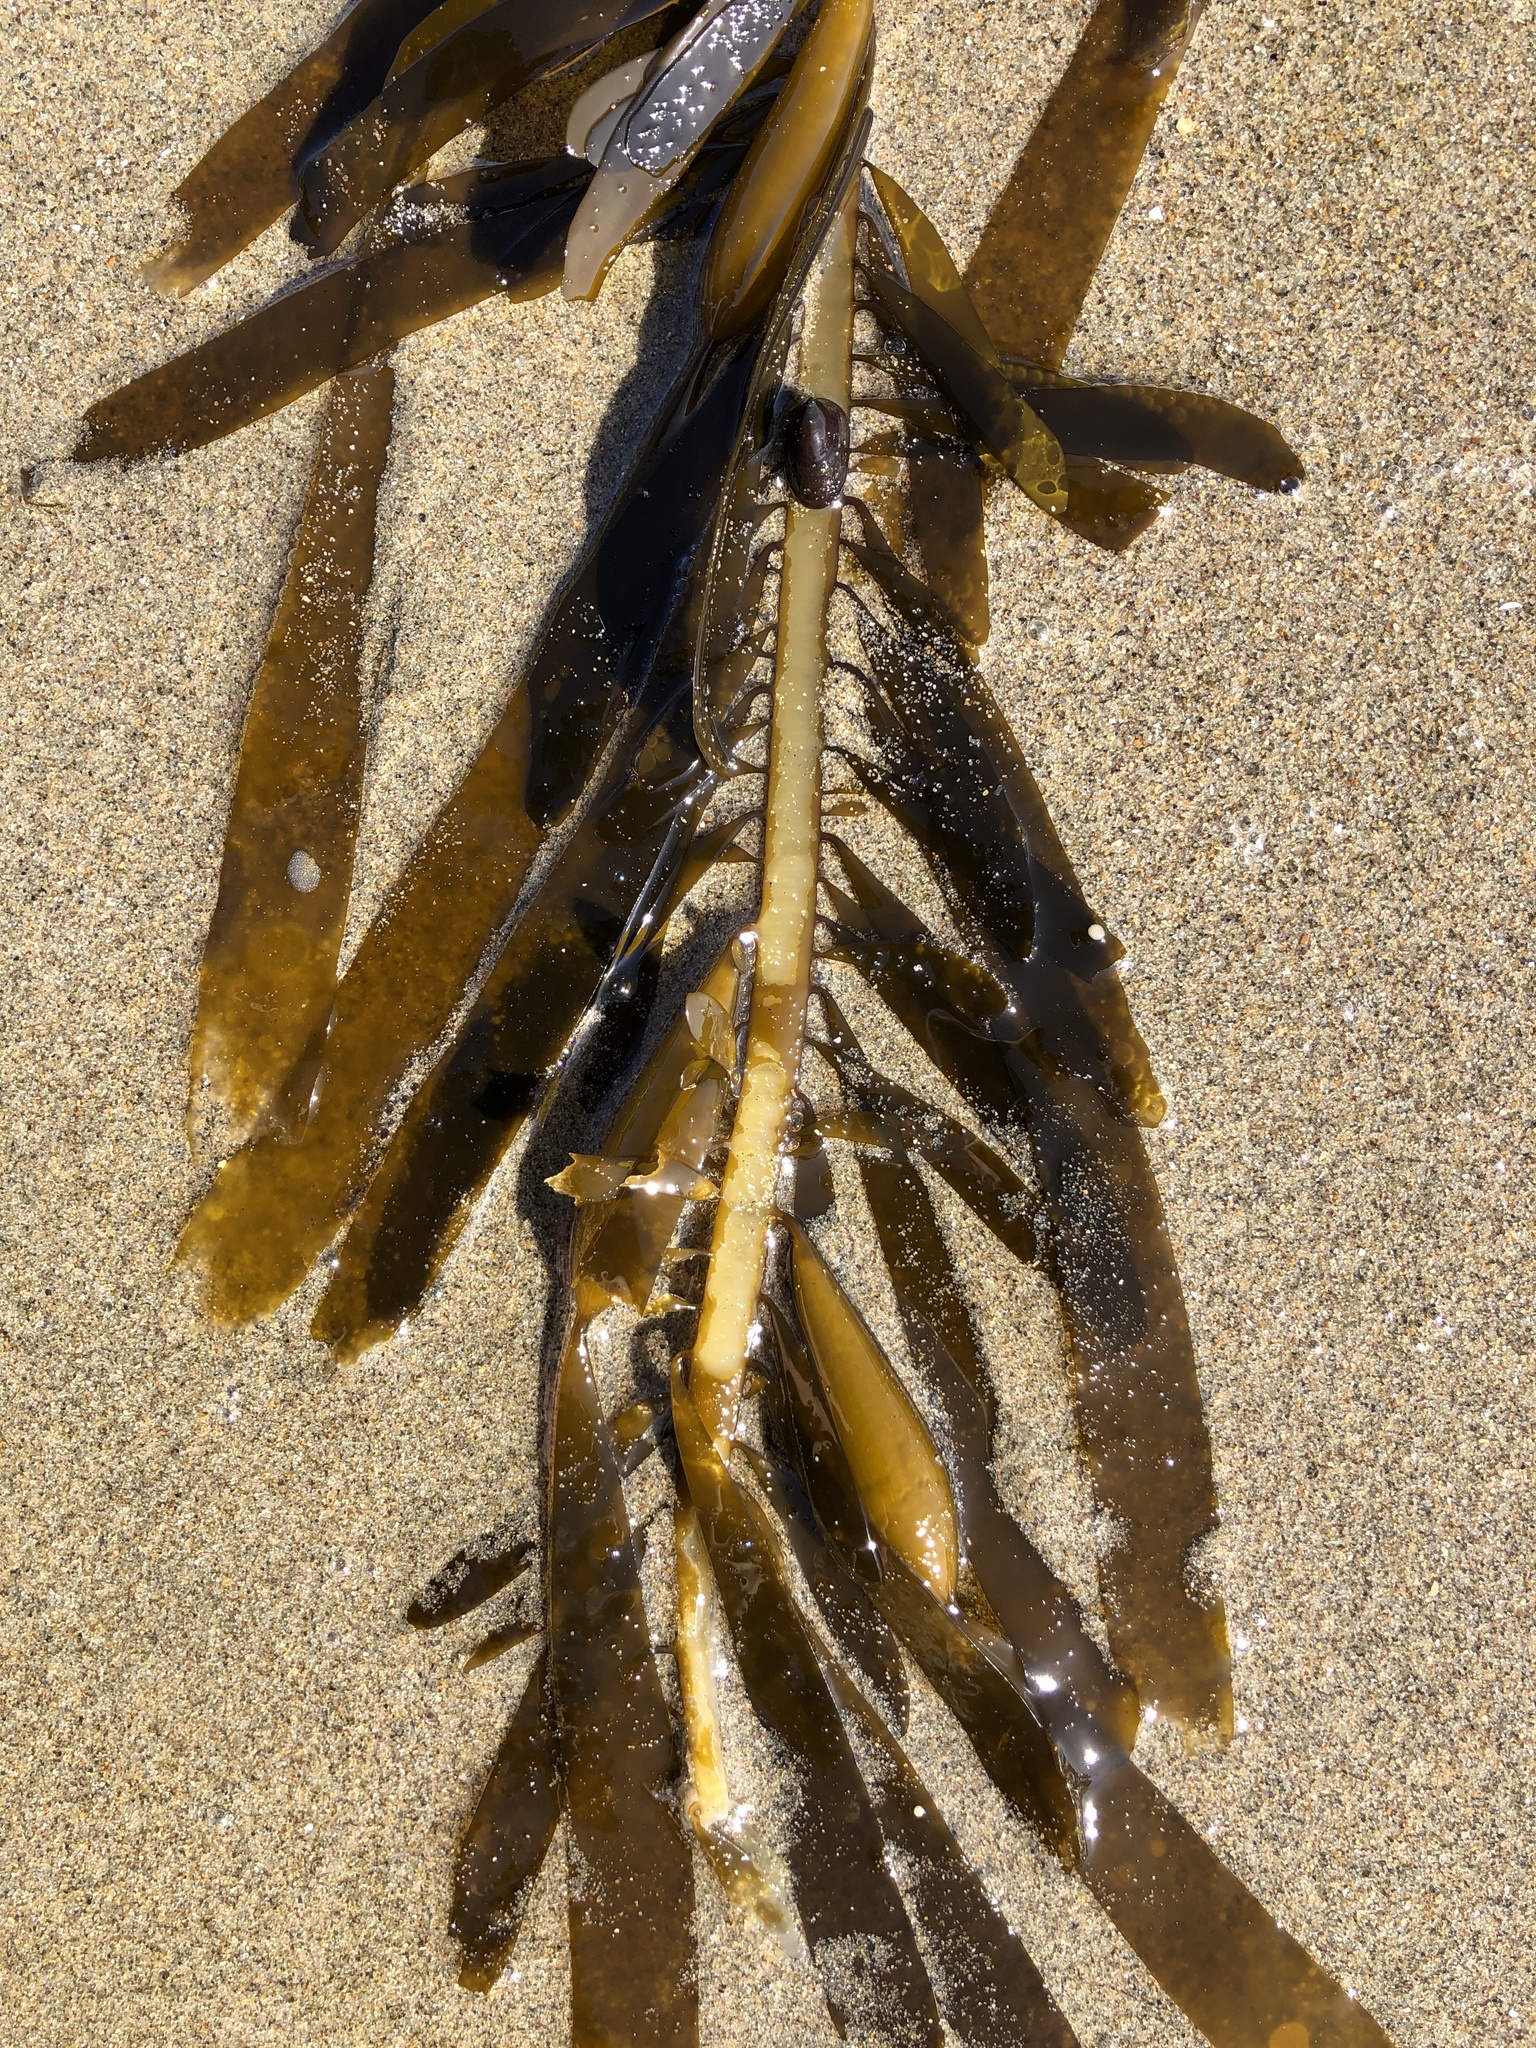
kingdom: Chromista
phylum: Ochrophyta
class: Phaeophyceae
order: Laminariales
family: Lessoniaceae
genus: Egregia
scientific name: Egregia menziesii
